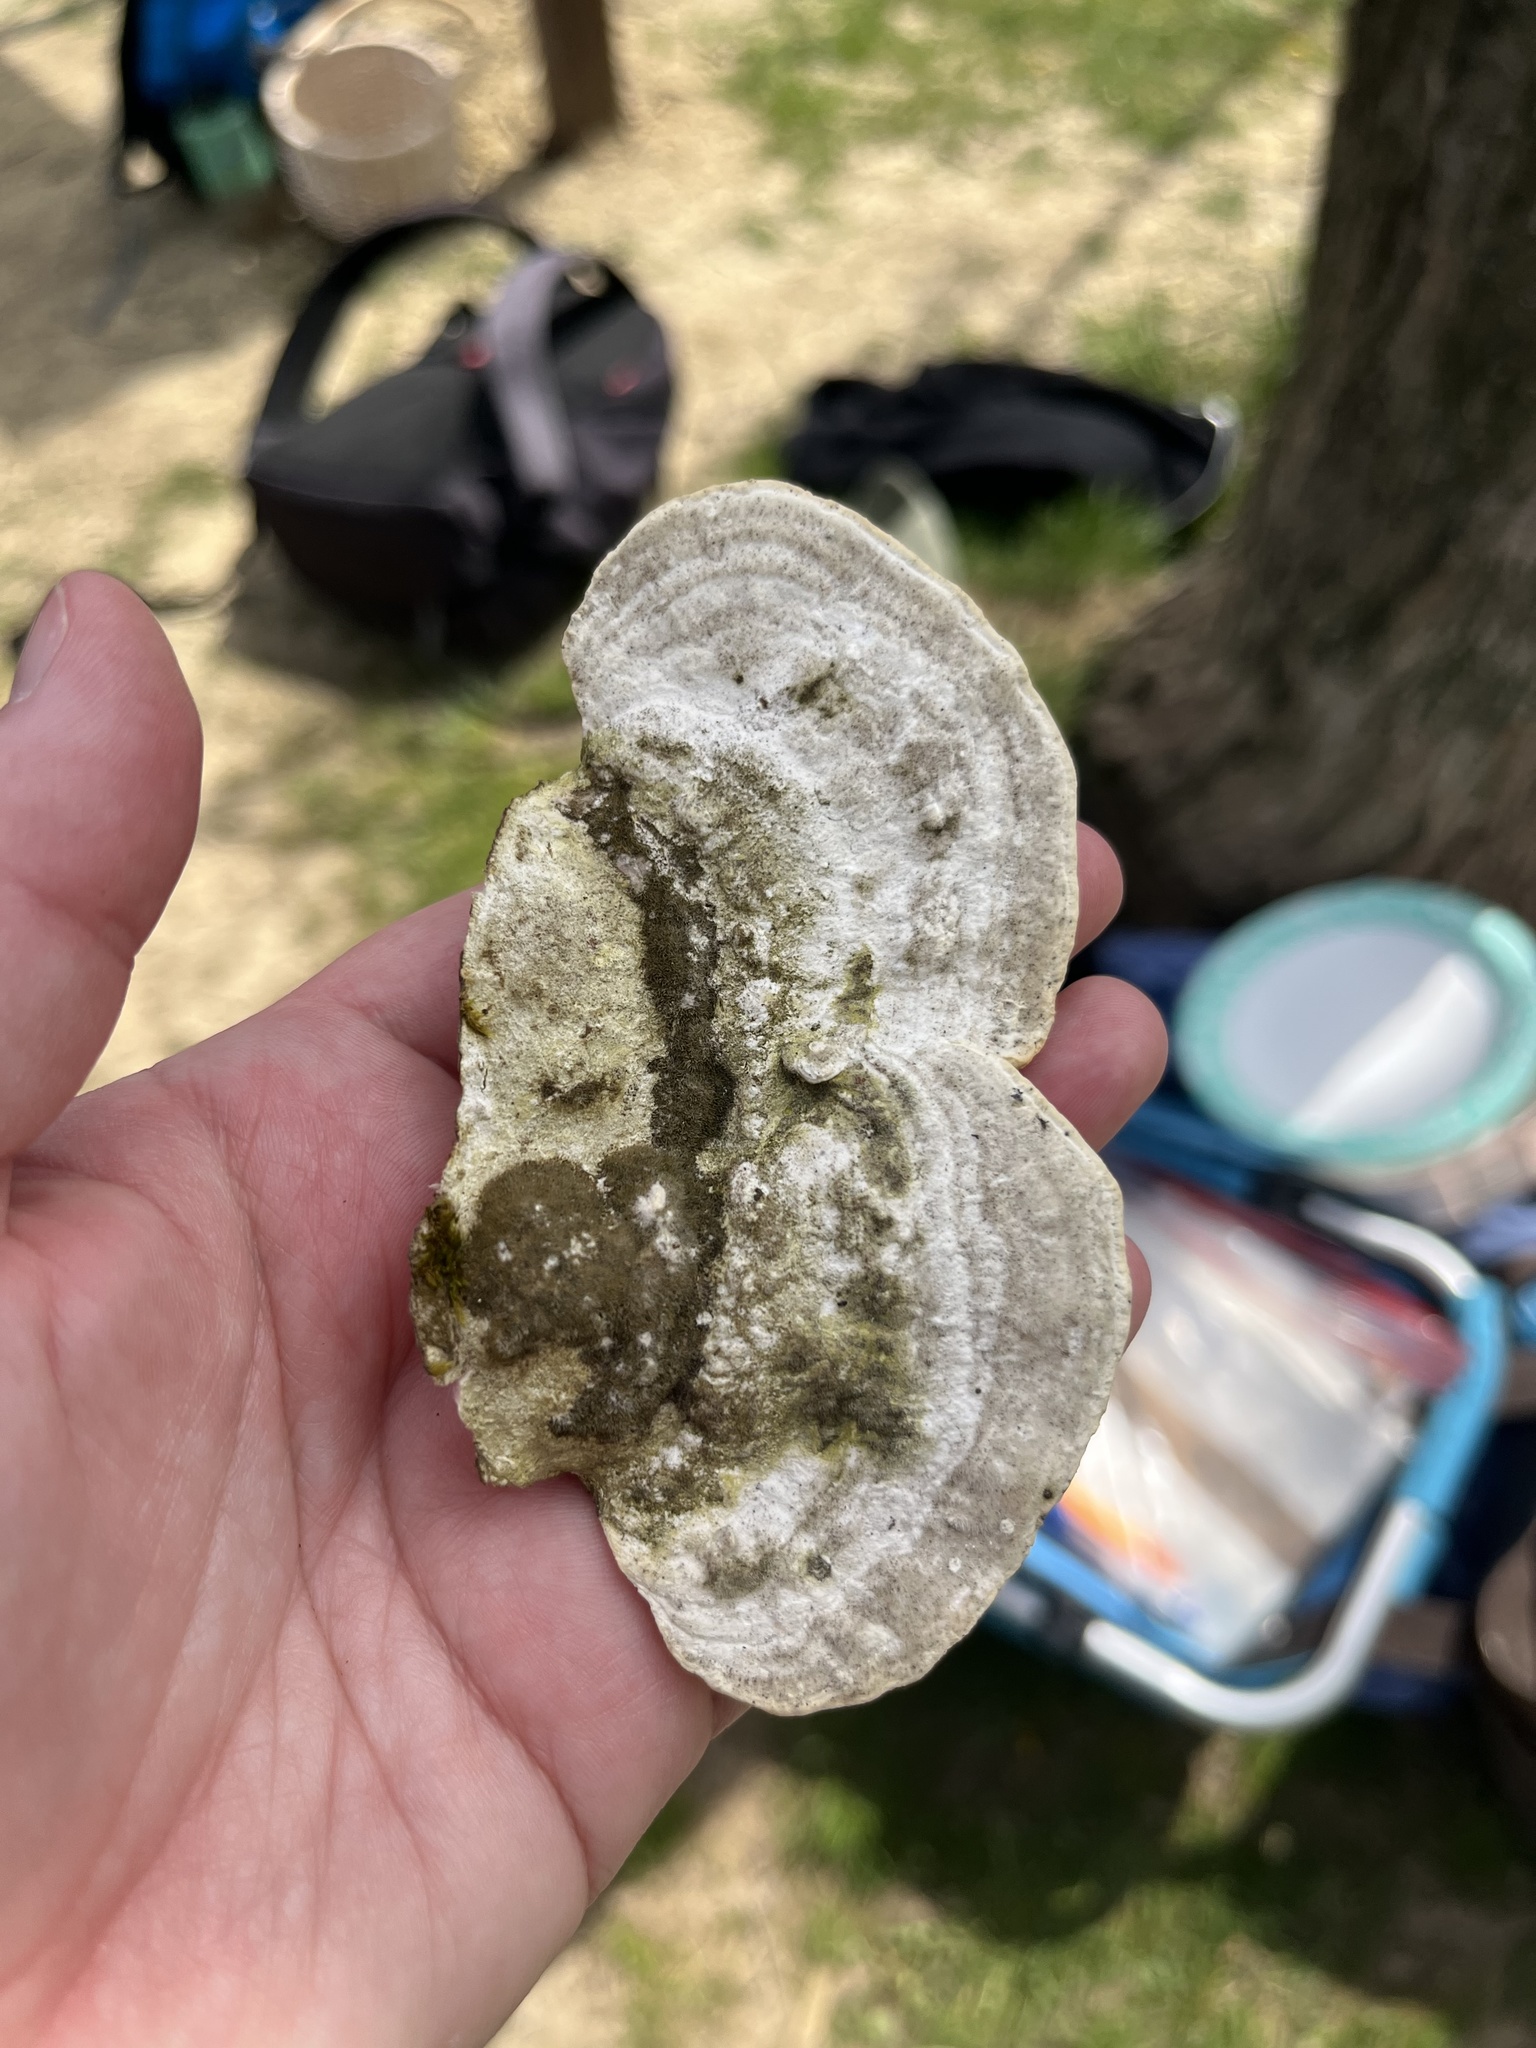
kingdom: Fungi
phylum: Basidiomycota
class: Agaricomycetes
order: Polyporales
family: Polyporaceae
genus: Trametes
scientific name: Trametes gibbosa
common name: Lumpy bracket
